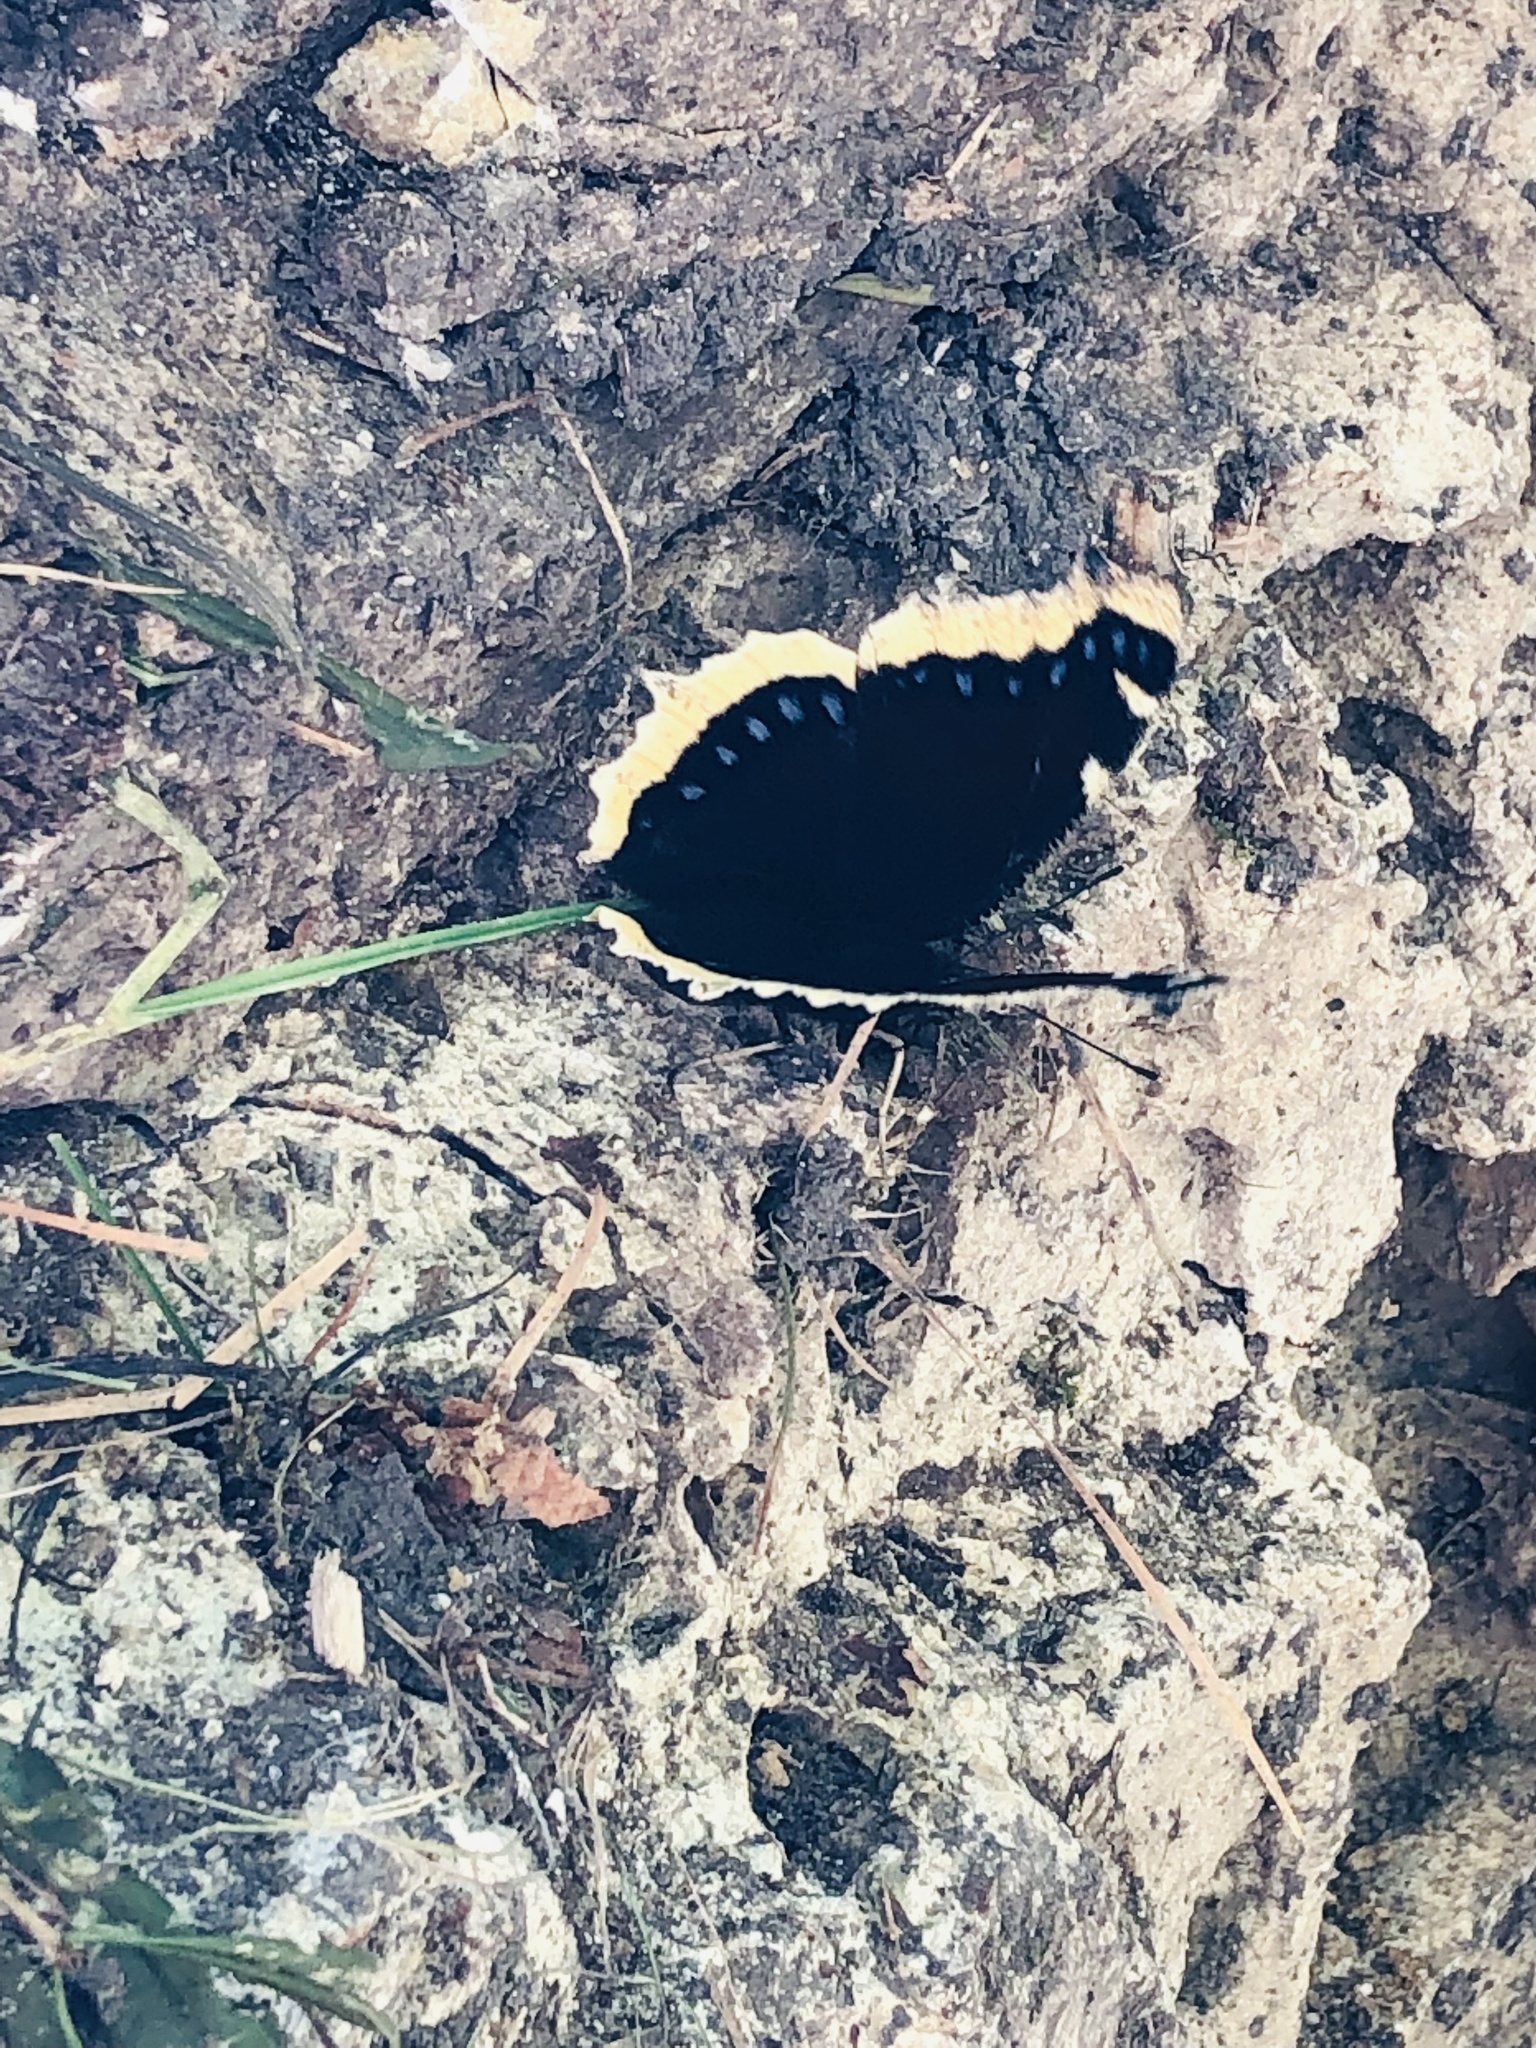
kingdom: Animalia
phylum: Arthropoda
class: Insecta
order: Lepidoptera
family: Nymphalidae
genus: Nymphalis
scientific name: Nymphalis antiopa
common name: Camberwell beauty
